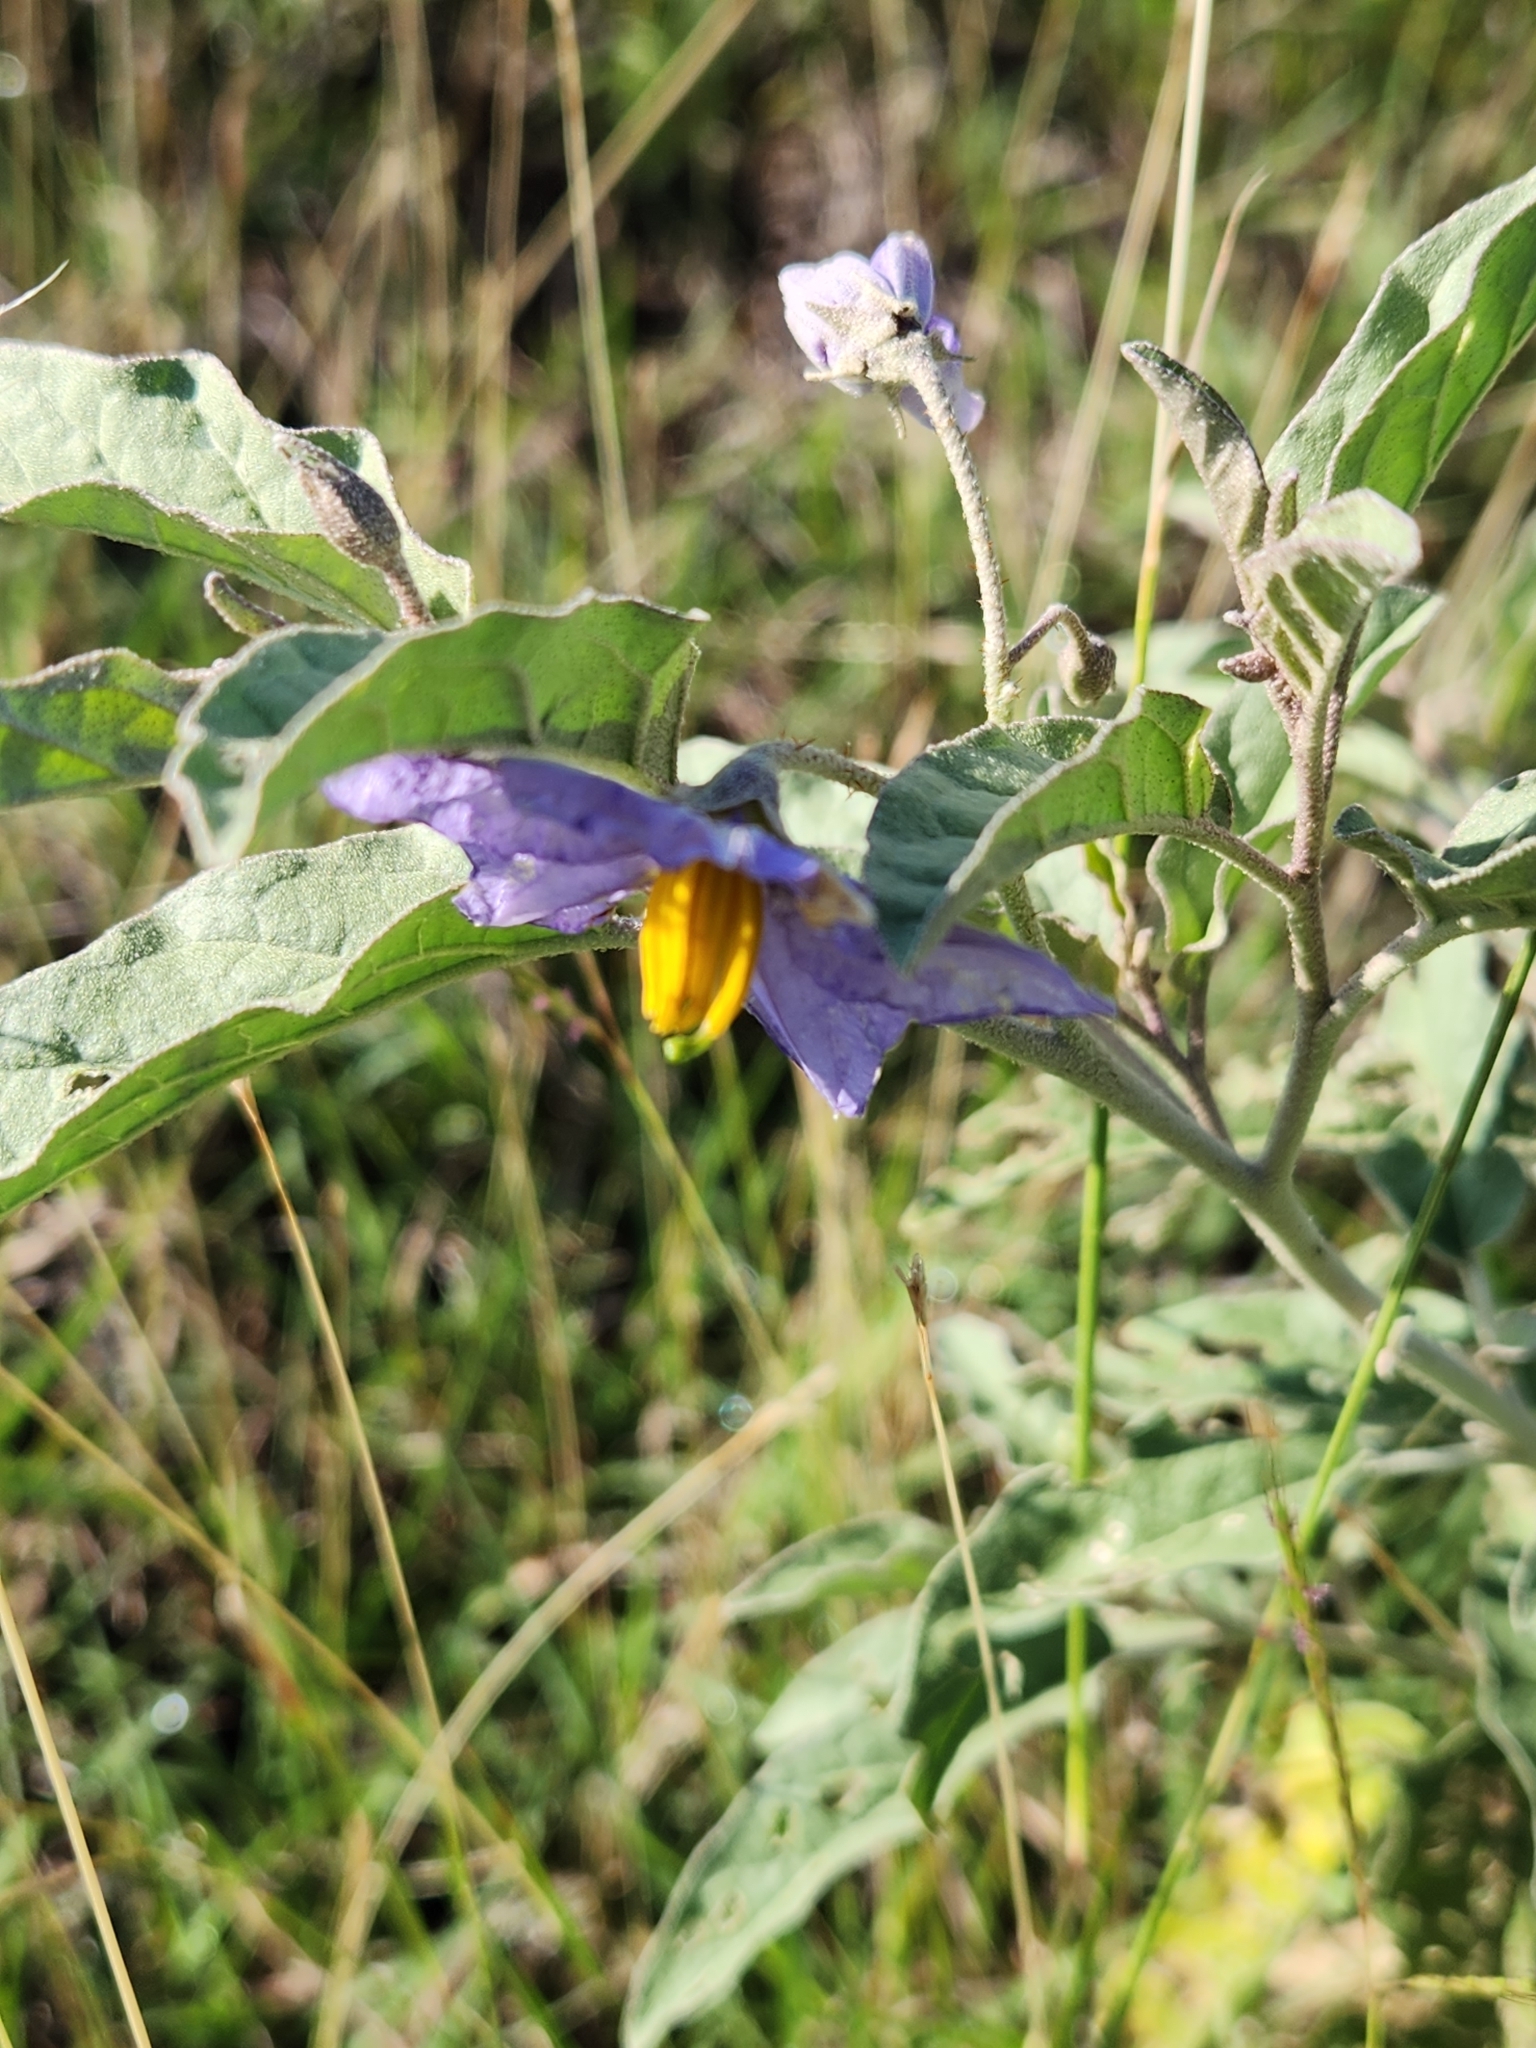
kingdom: Plantae
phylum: Tracheophyta
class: Magnoliopsida
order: Solanales
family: Solanaceae
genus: Solanum
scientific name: Solanum elaeagnifolium
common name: Silverleaf nightshade
